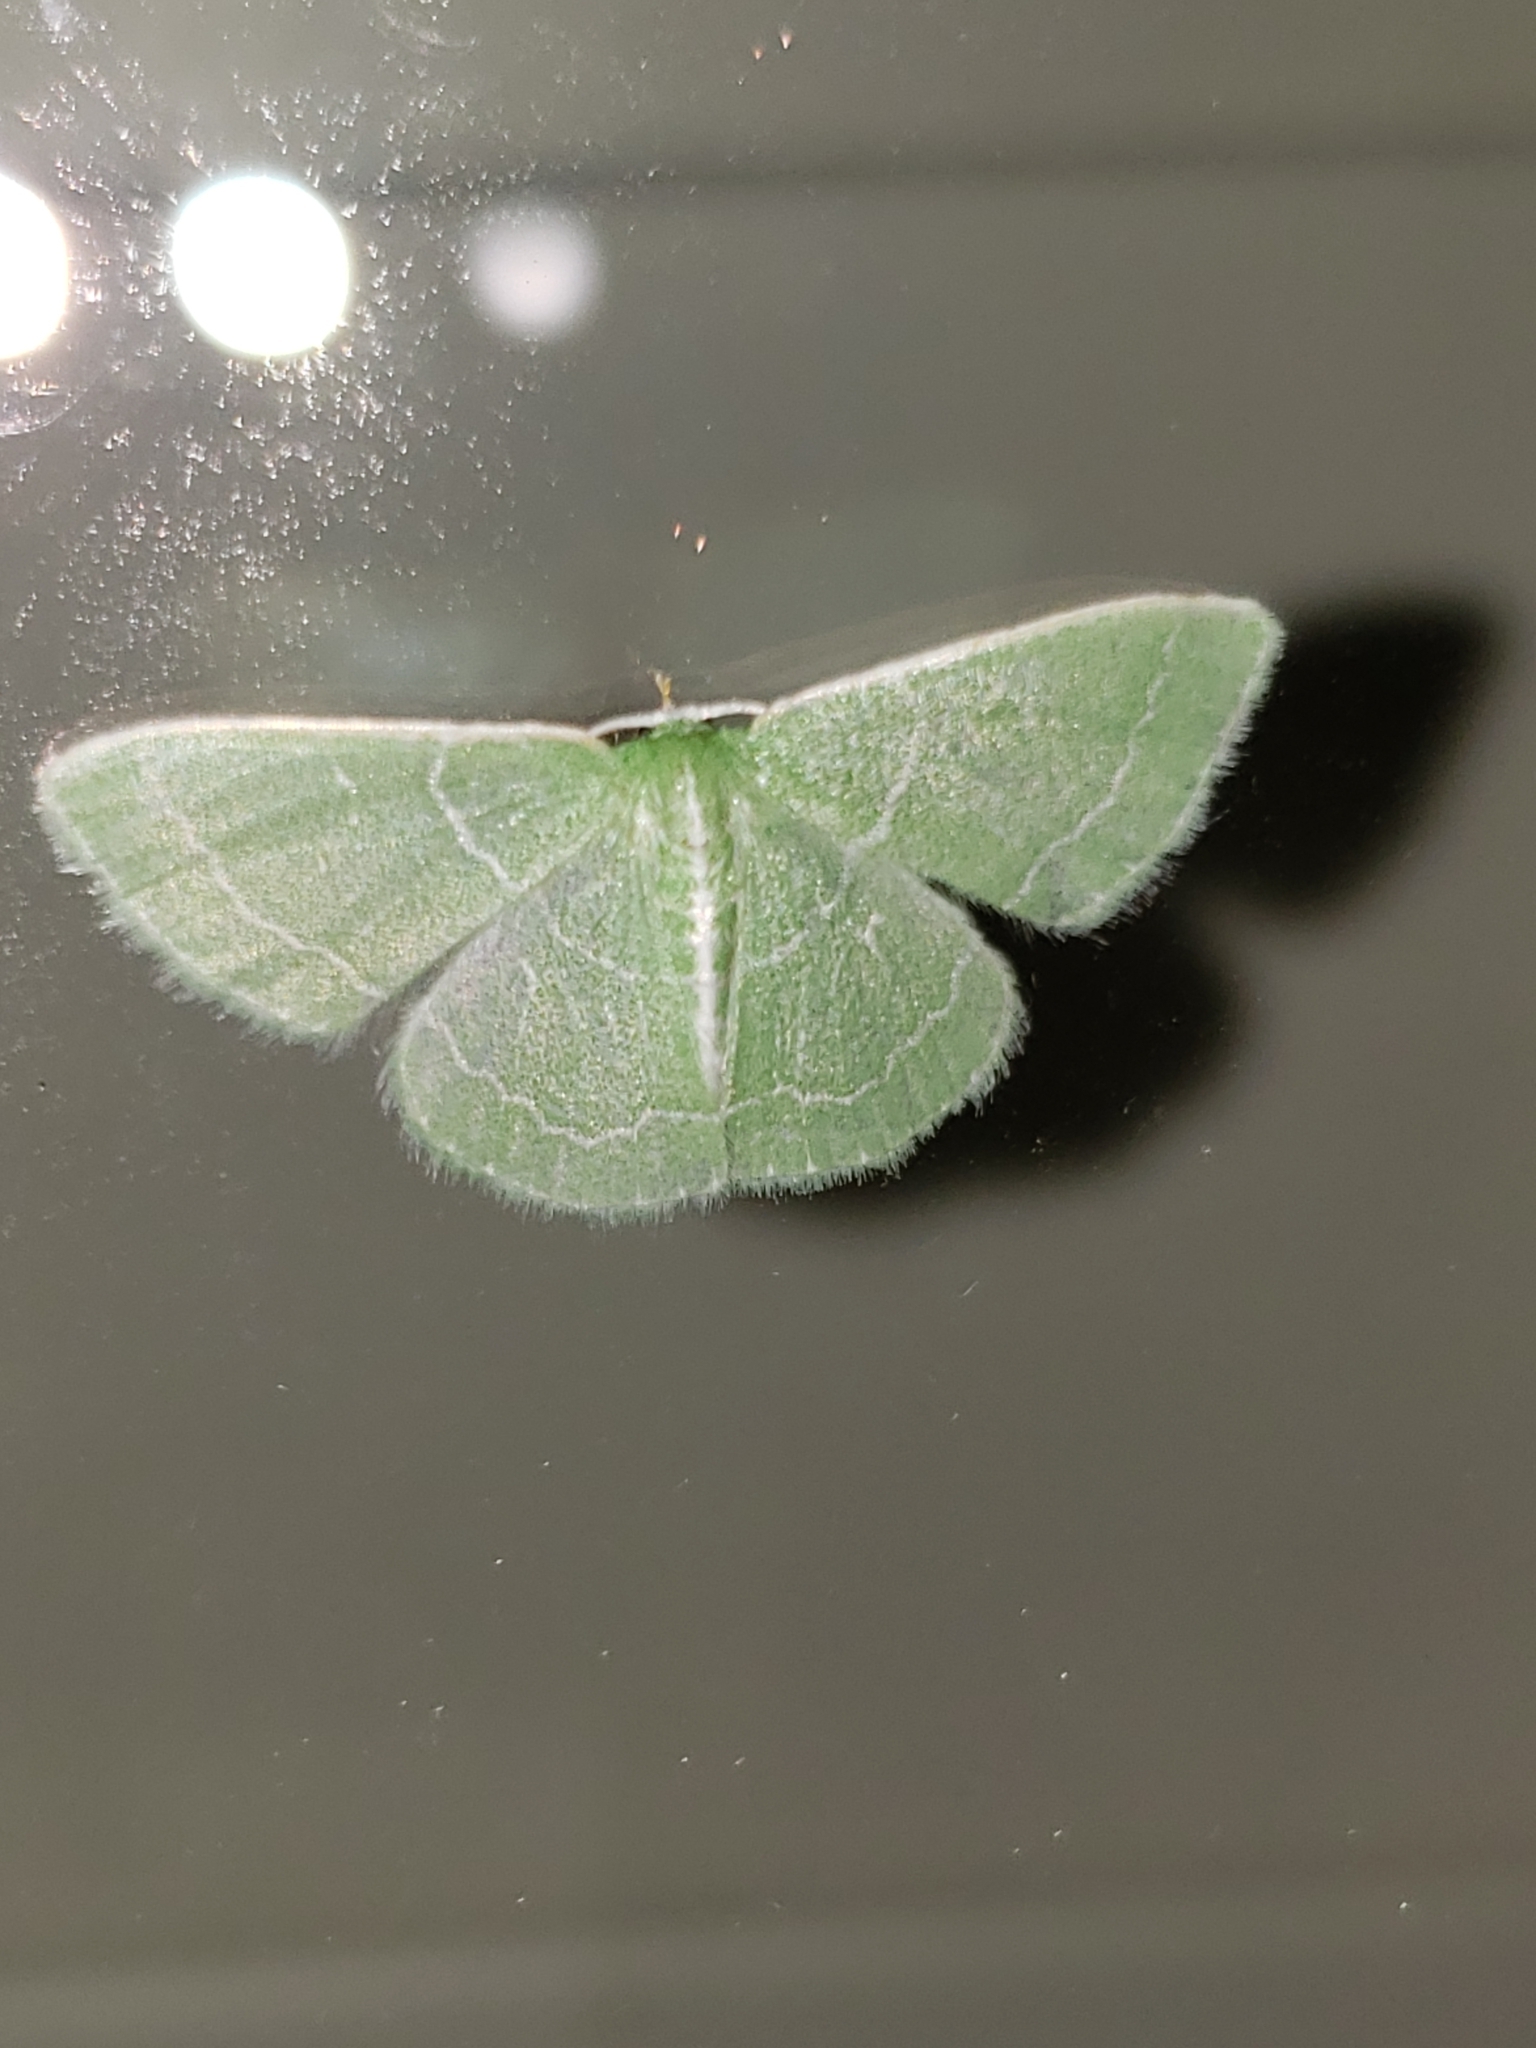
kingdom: Animalia
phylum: Arthropoda
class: Insecta
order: Lepidoptera
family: Geometridae
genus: Synchlora
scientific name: Synchlora aerata
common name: Wavy-lined emerald
